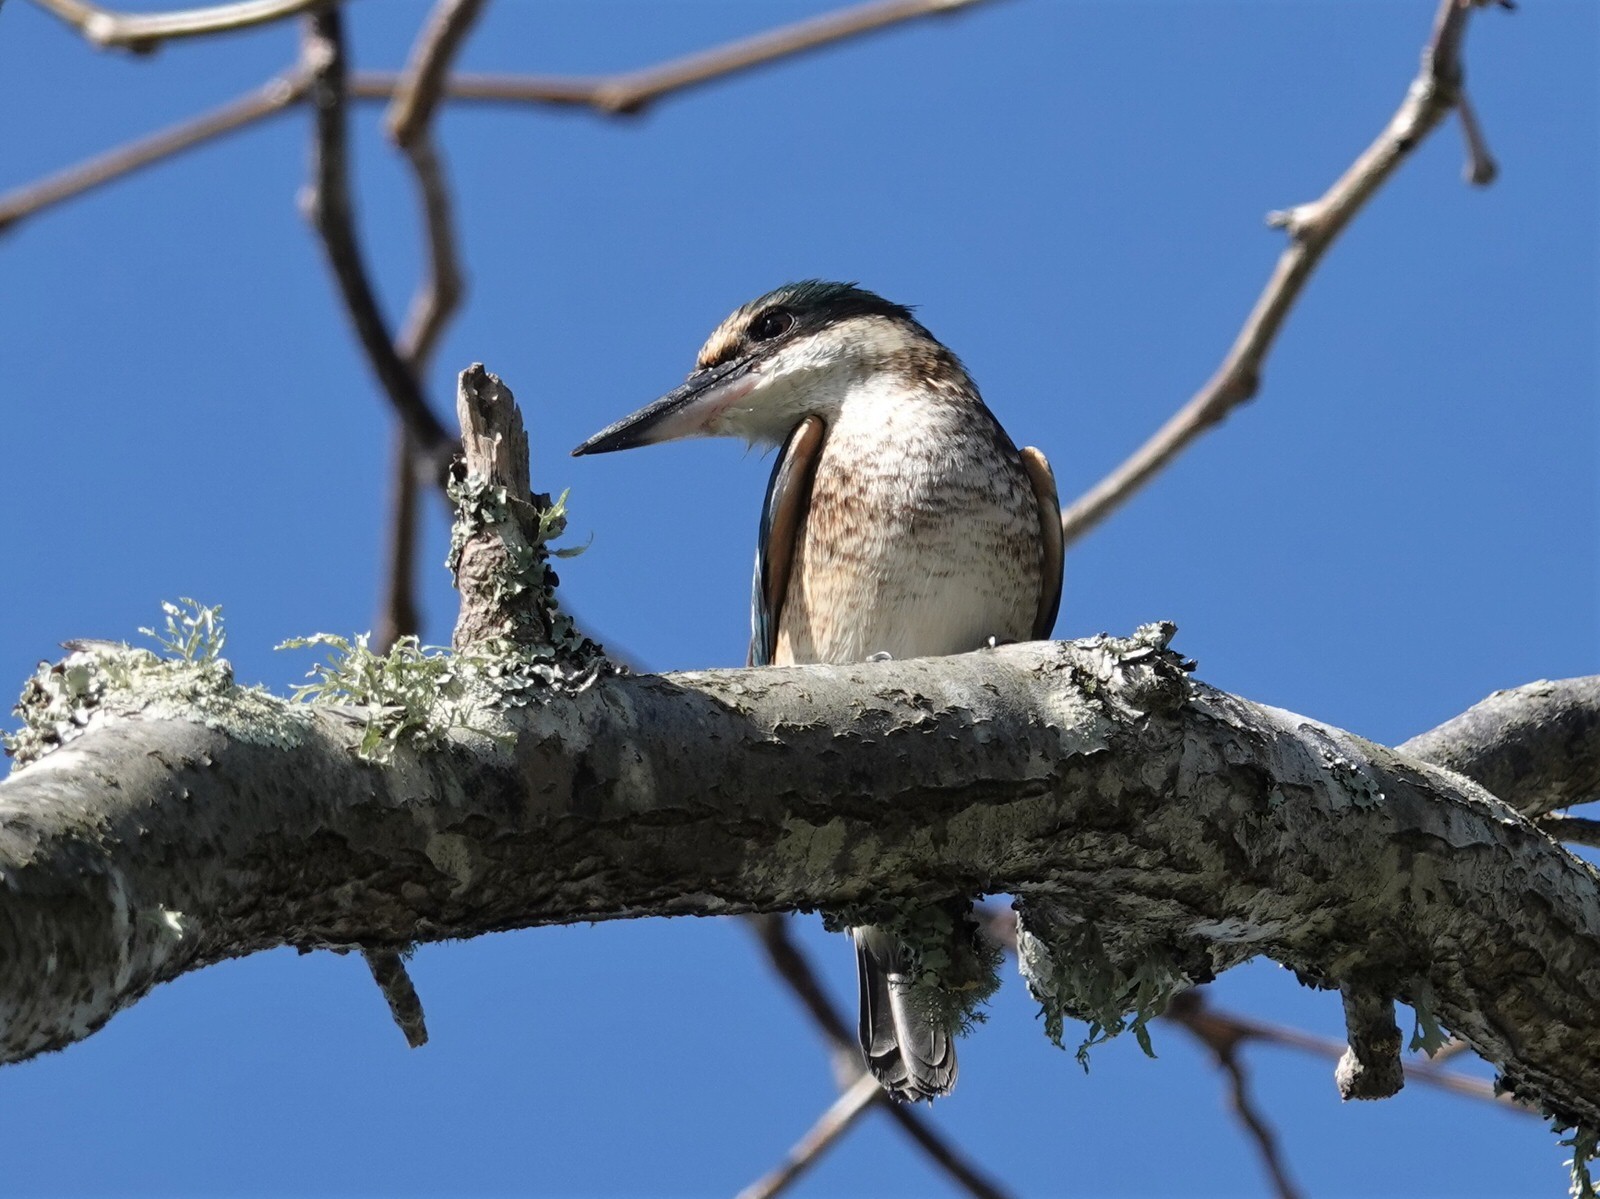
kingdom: Animalia
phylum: Chordata
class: Aves
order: Coraciiformes
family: Alcedinidae
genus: Todiramphus
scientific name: Todiramphus sanctus
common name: Sacred kingfisher
